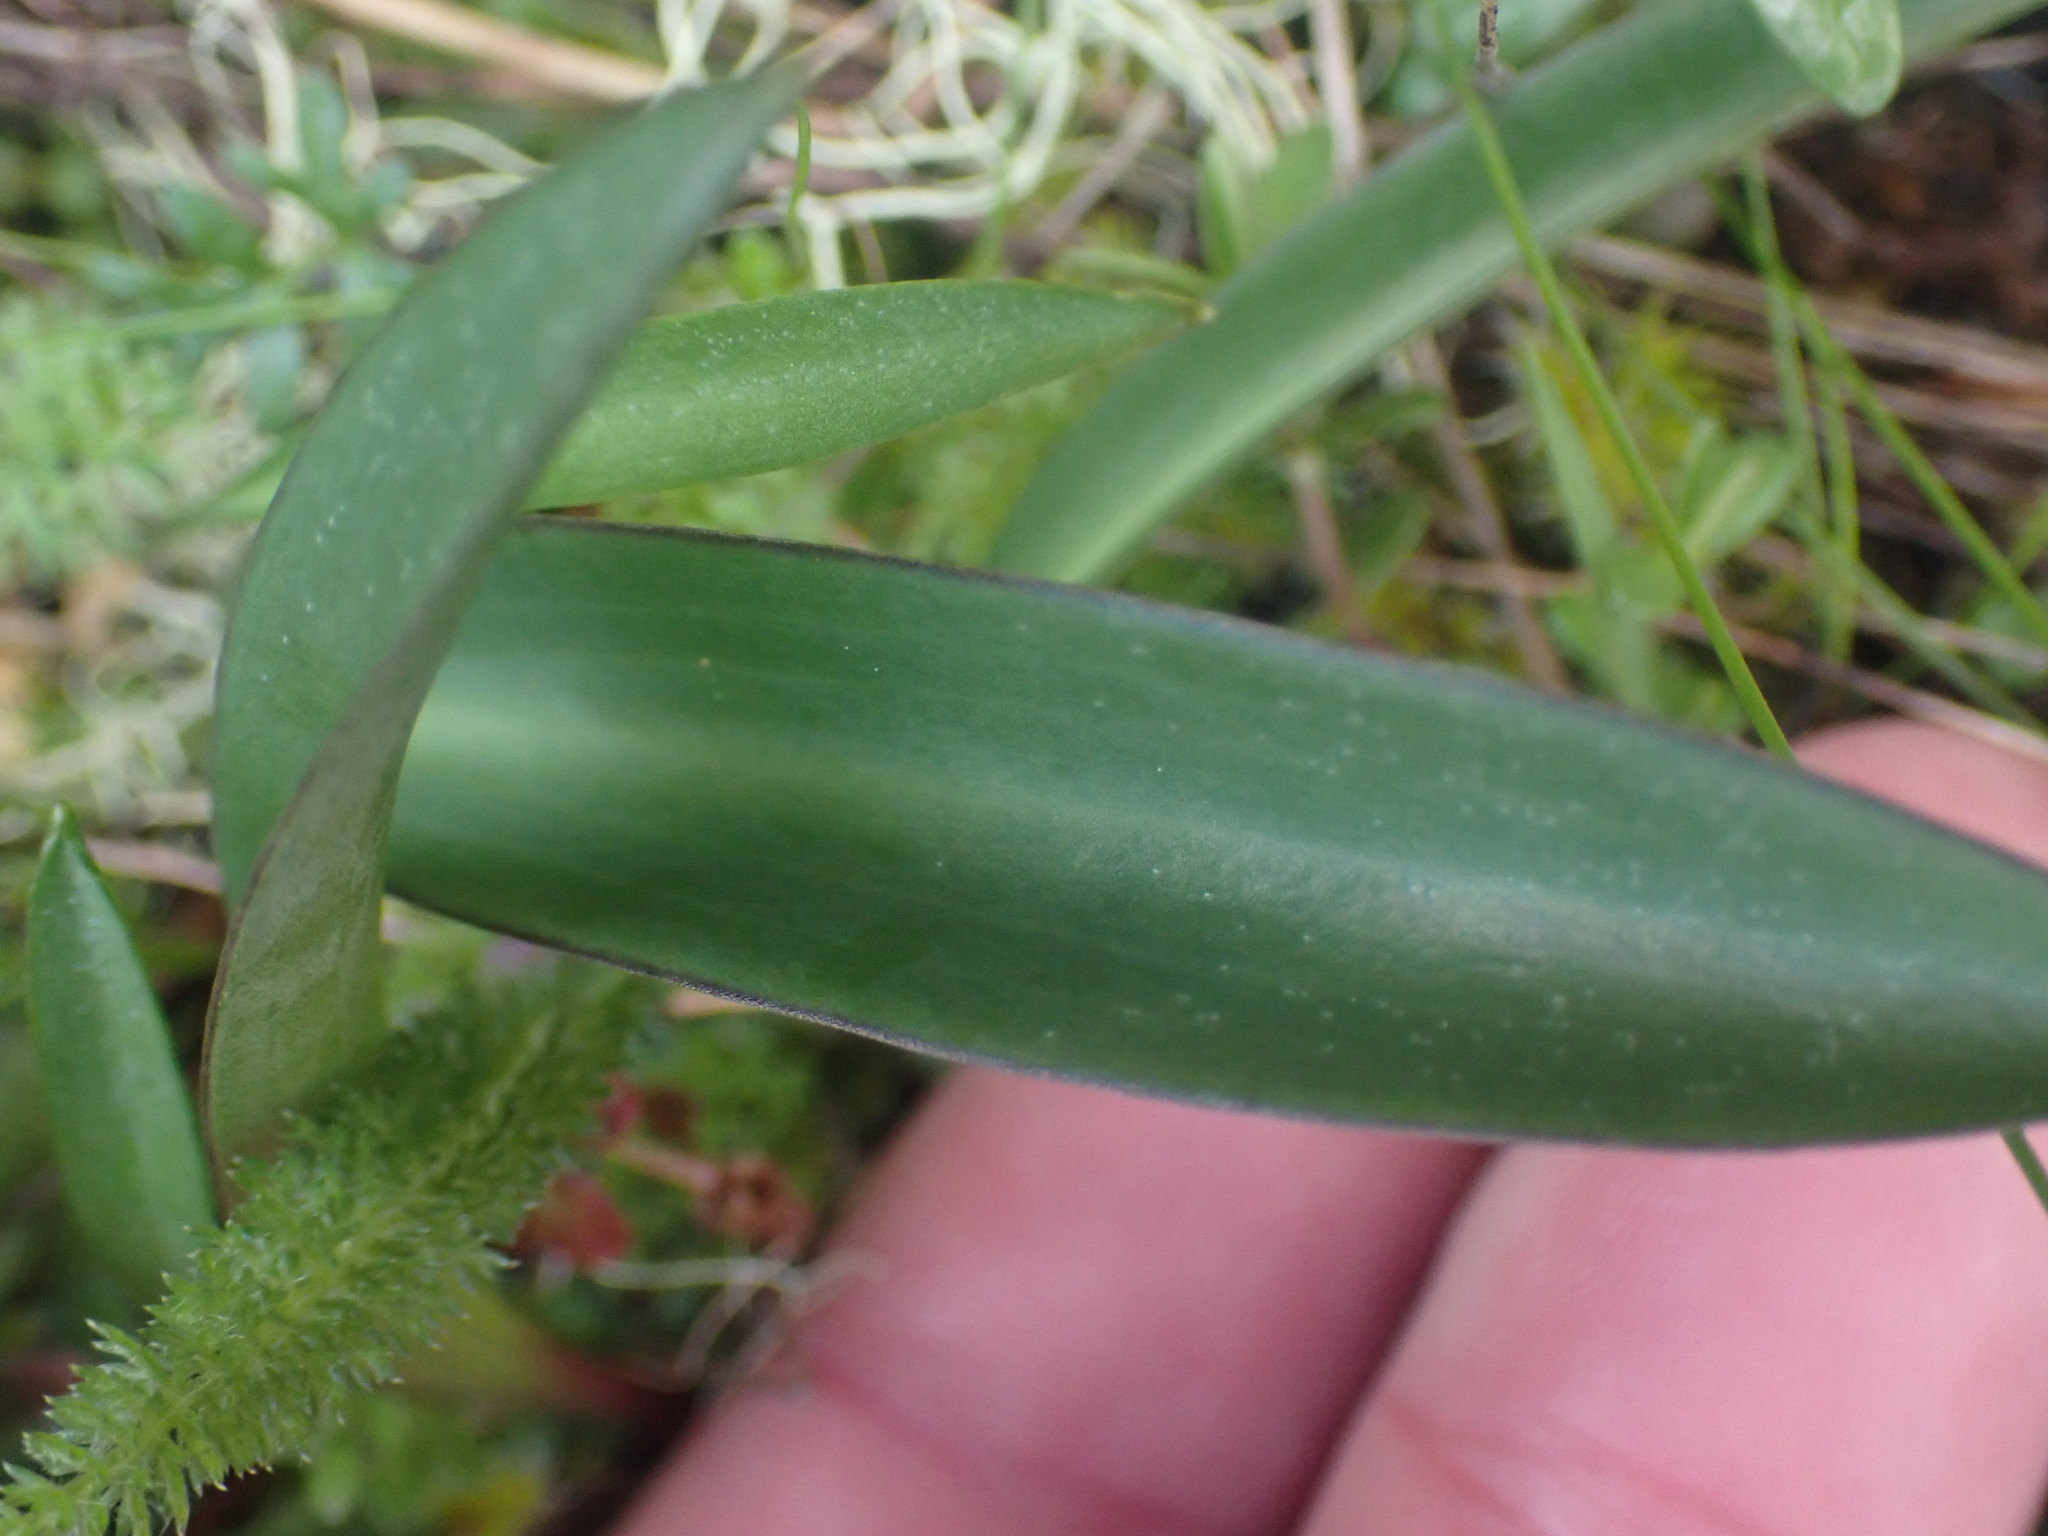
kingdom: Plantae
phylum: Tracheophyta
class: Liliopsida
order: Liliales
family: Liliaceae
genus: Fritillaria
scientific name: Fritillaria affinis
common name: Ojai fritillary
